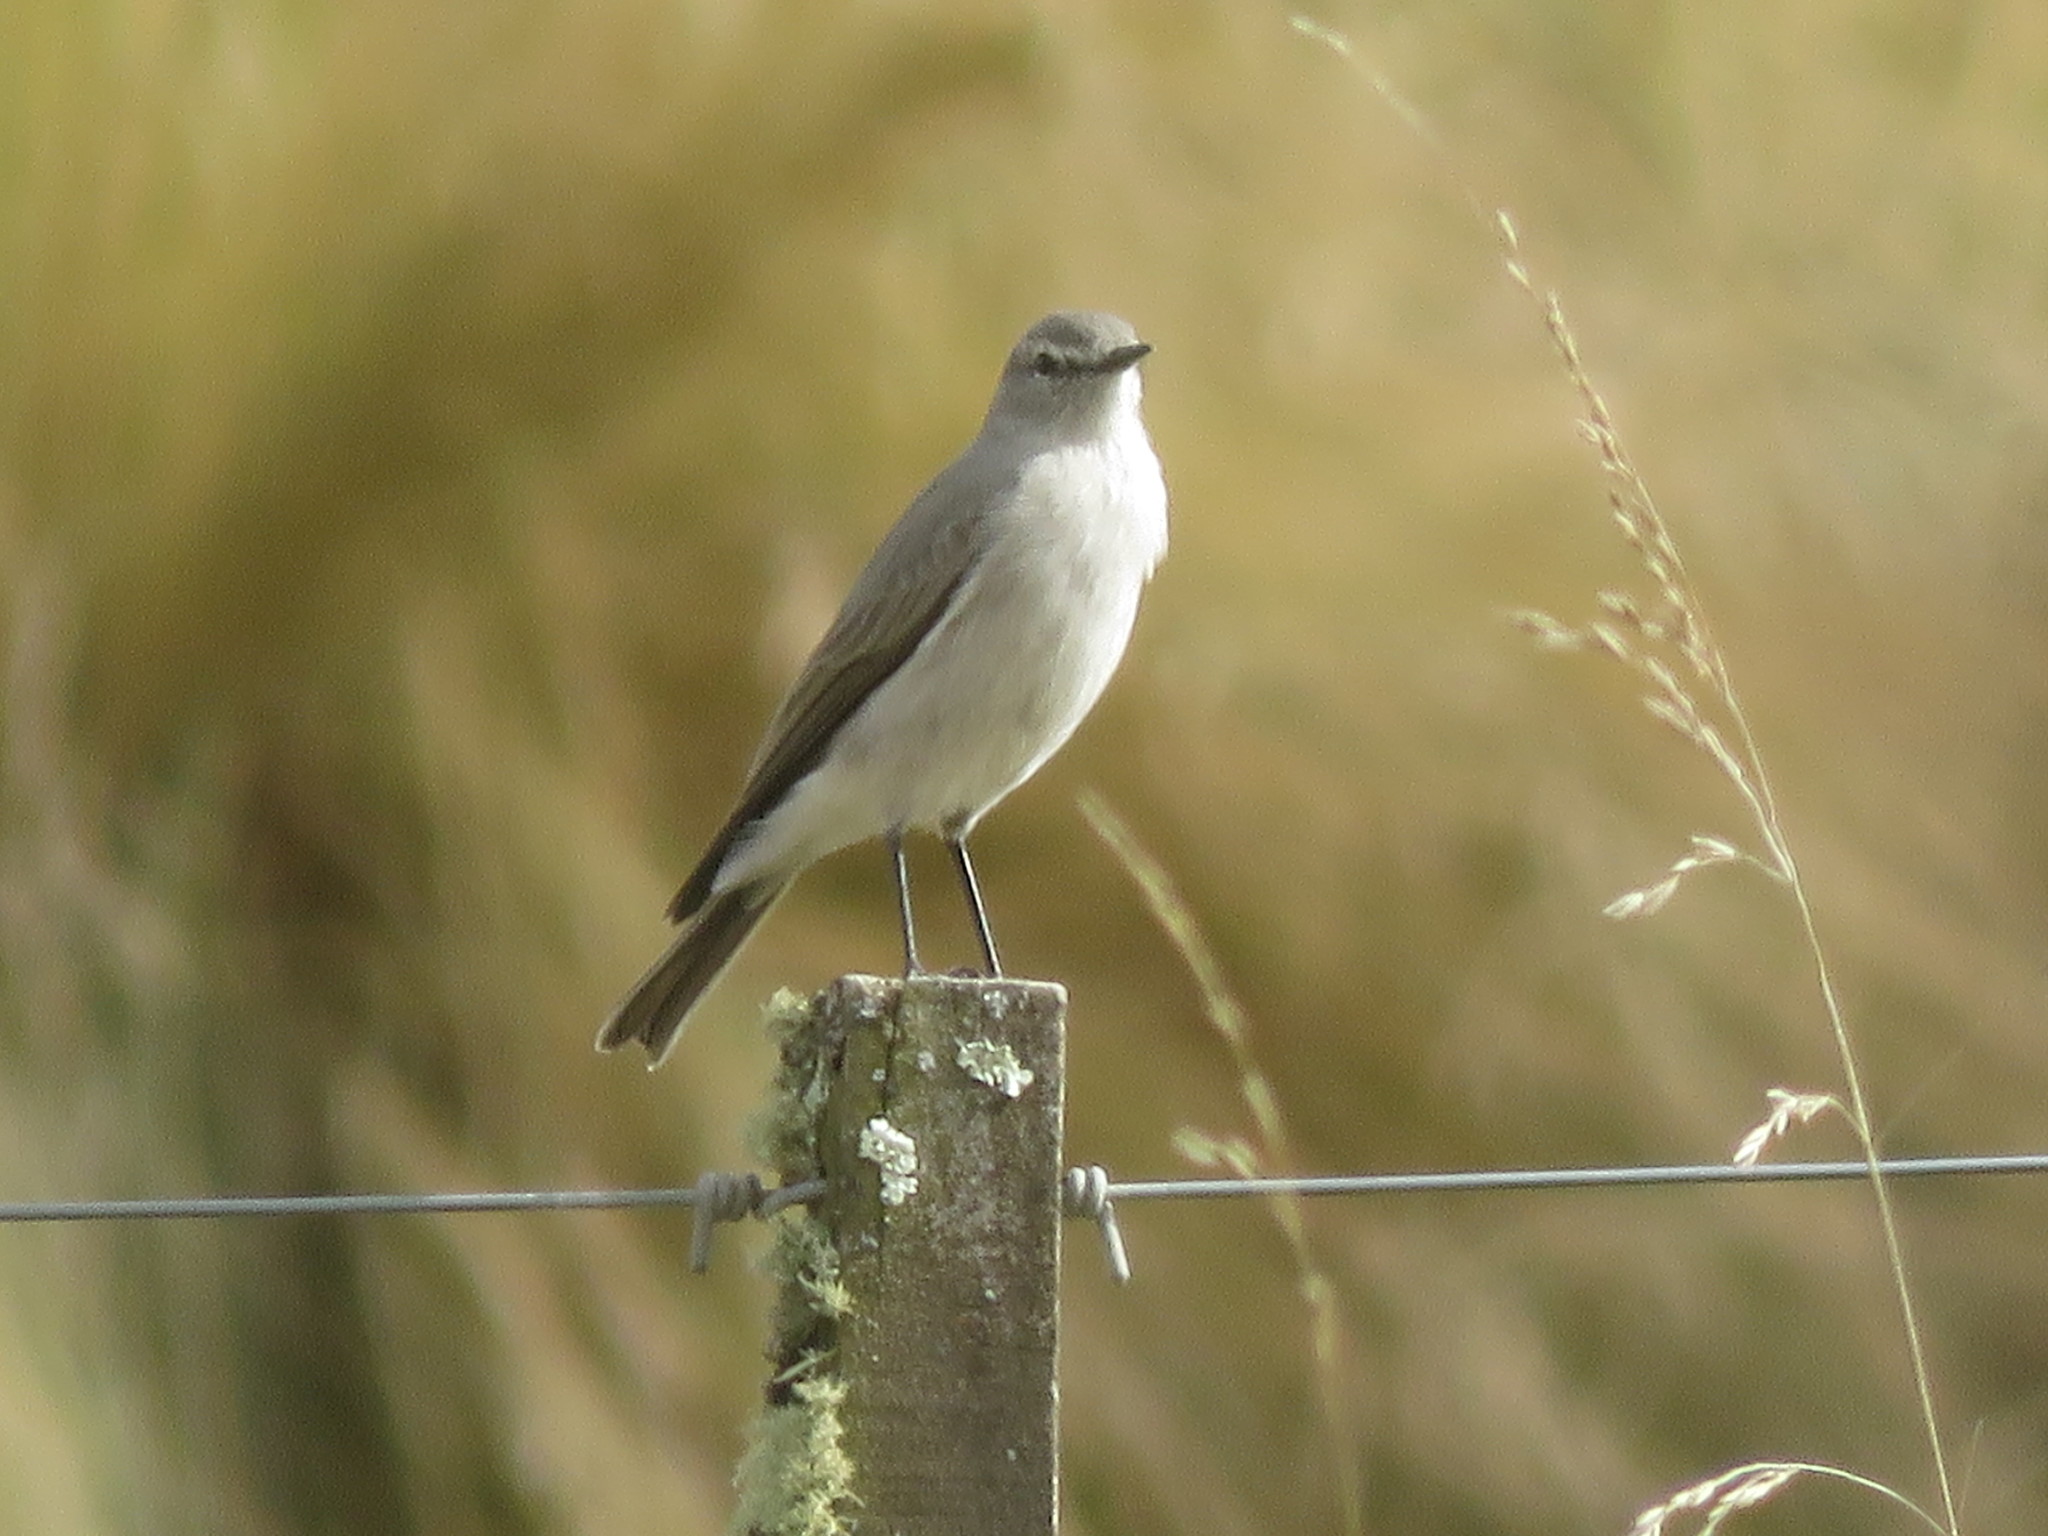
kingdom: Animalia
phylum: Chordata
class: Aves
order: Passeriformes
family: Tyrannidae
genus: Muscisaxicola
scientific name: Muscisaxicola cinereus
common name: Cinereous ground tyrant
